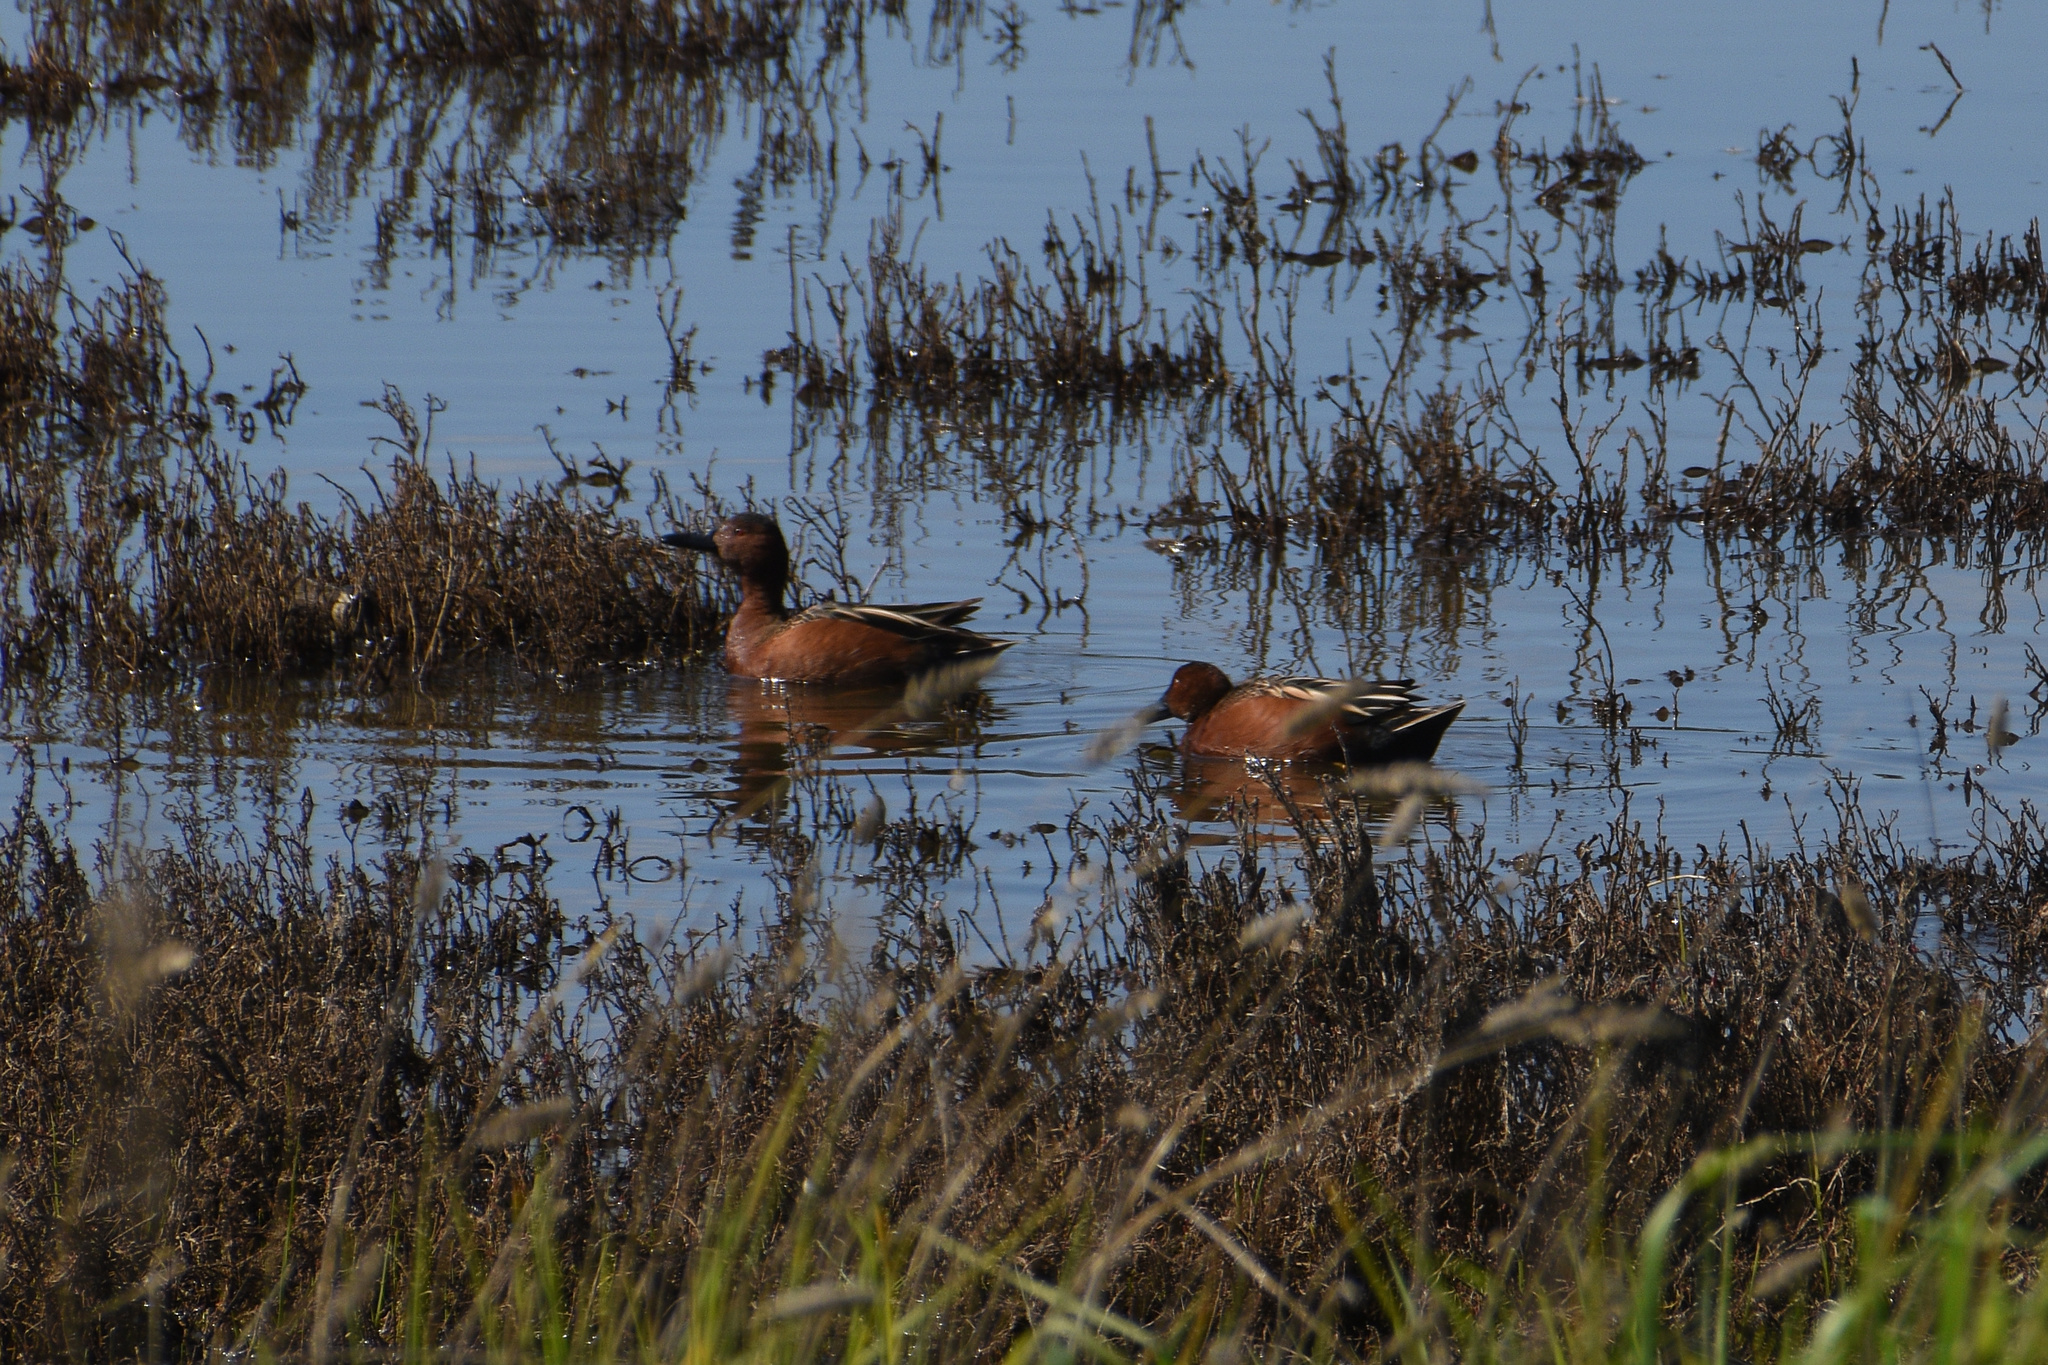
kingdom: Animalia
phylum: Chordata
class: Aves
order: Anseriformes
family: Anatidae
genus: Spatula
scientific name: Spatula cyanoptera
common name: Cinnamon teal
